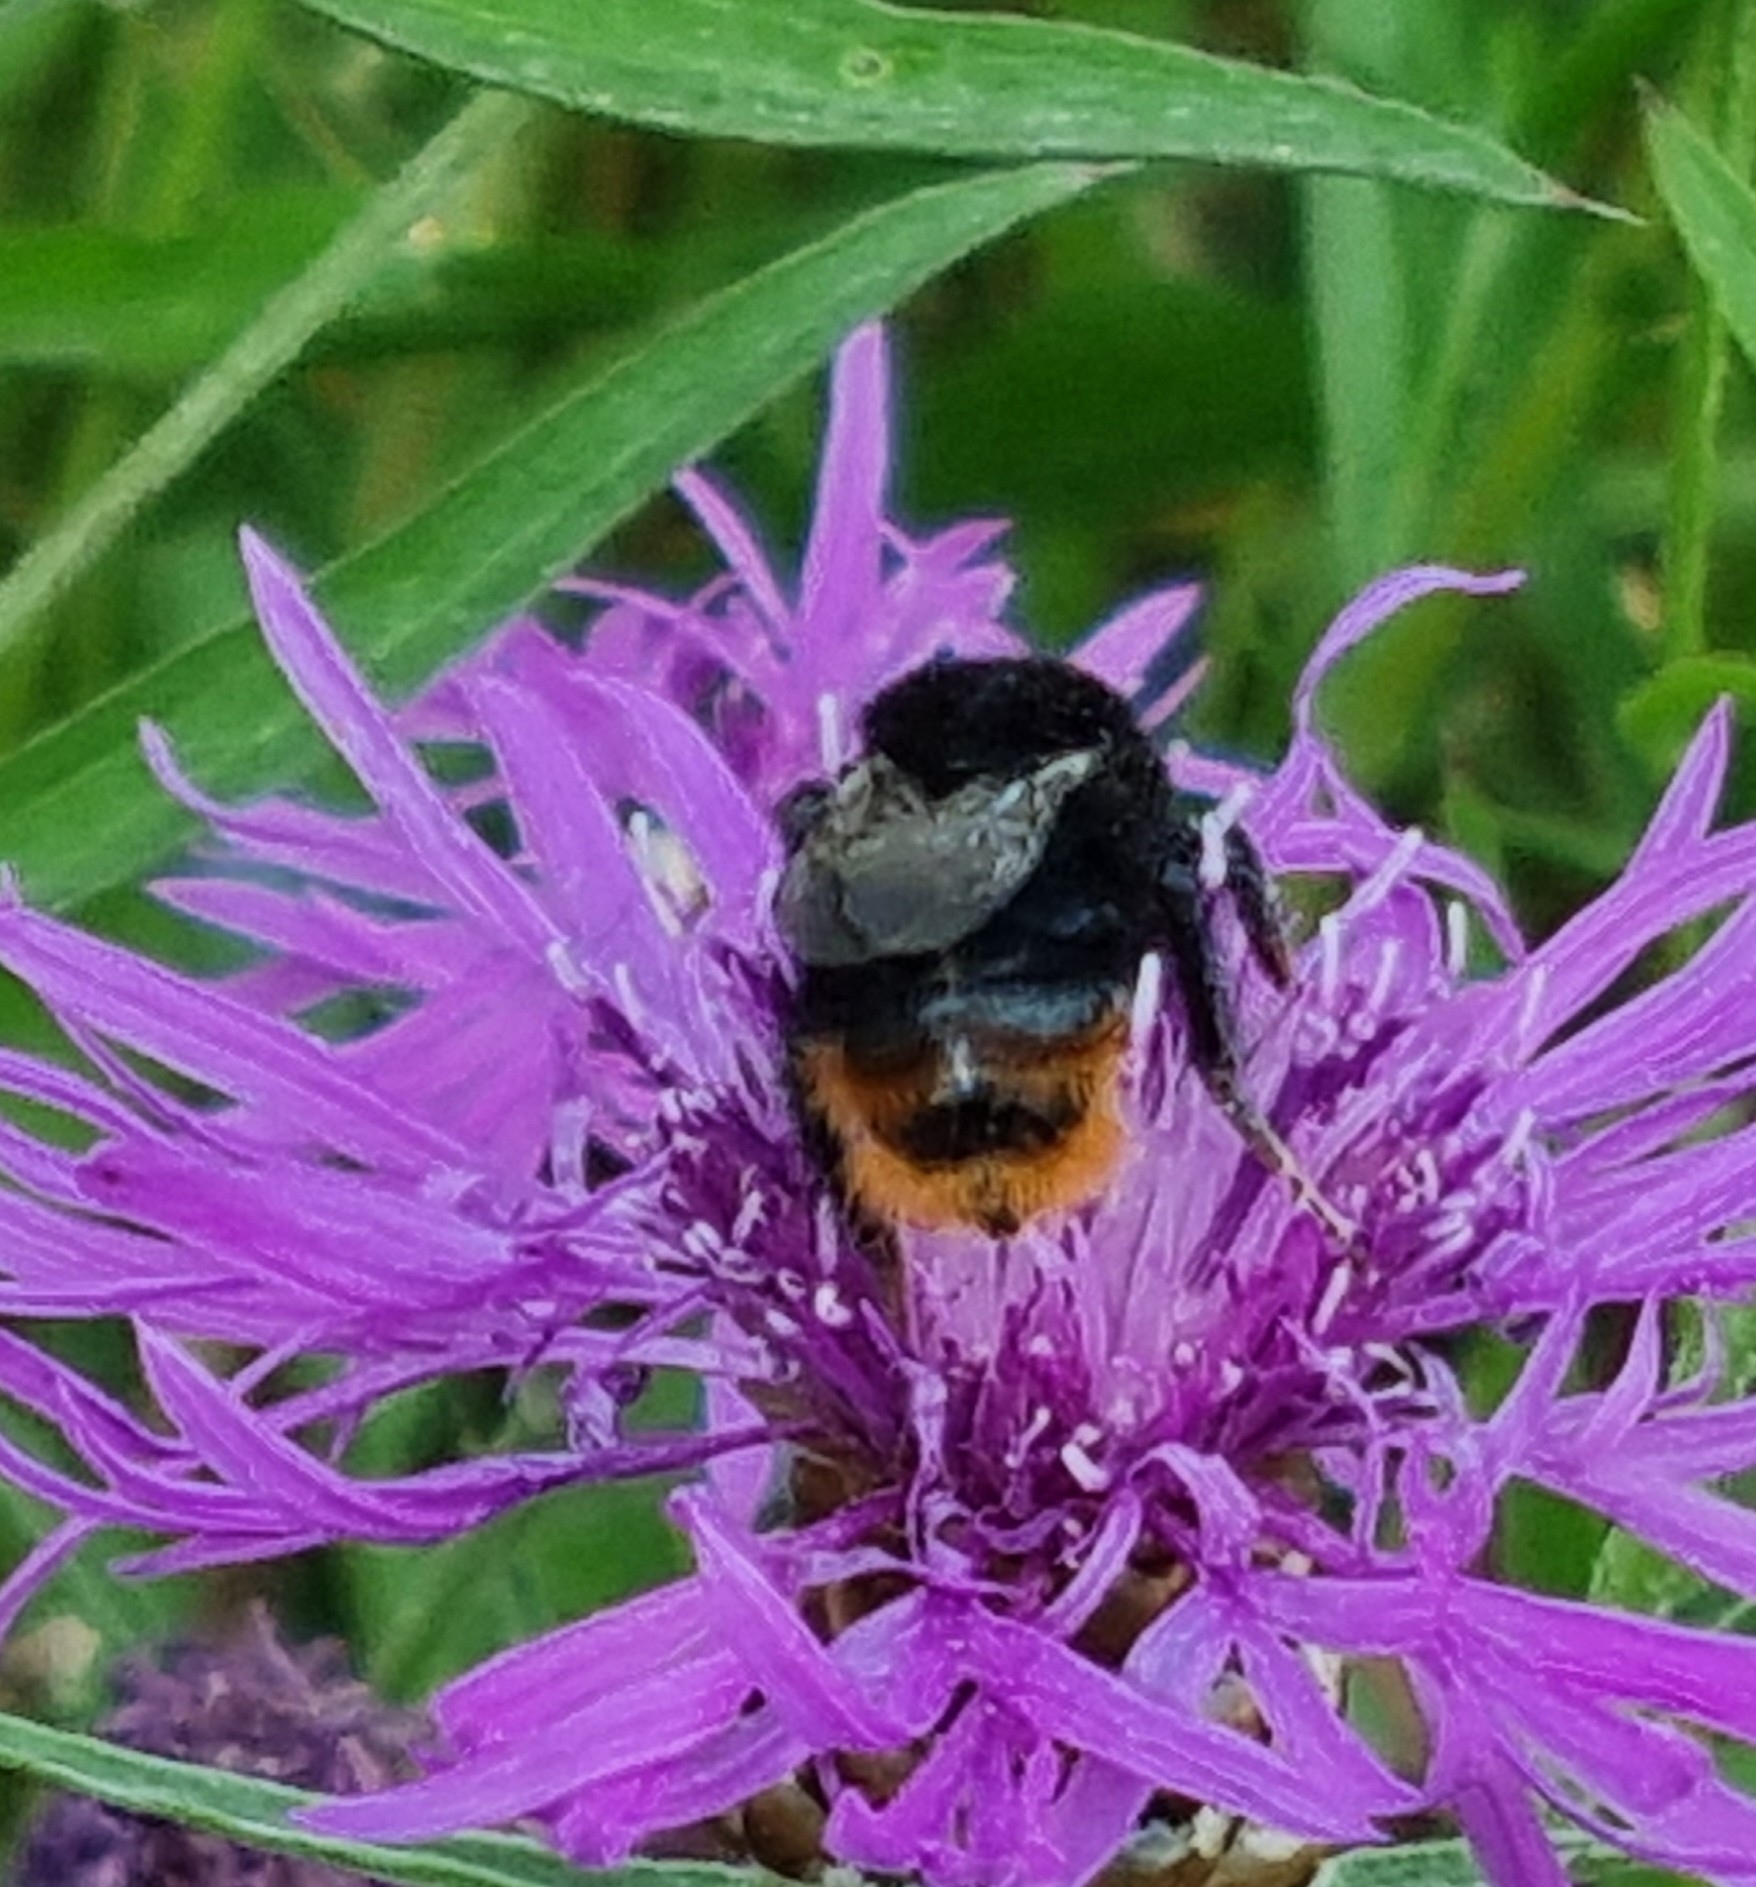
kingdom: Animalia
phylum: Arthropoda
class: Insecta
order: Hymenoptera
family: Apidae
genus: Bombus
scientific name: Bombus lapidarius
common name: Large red-tailed humble-bee
